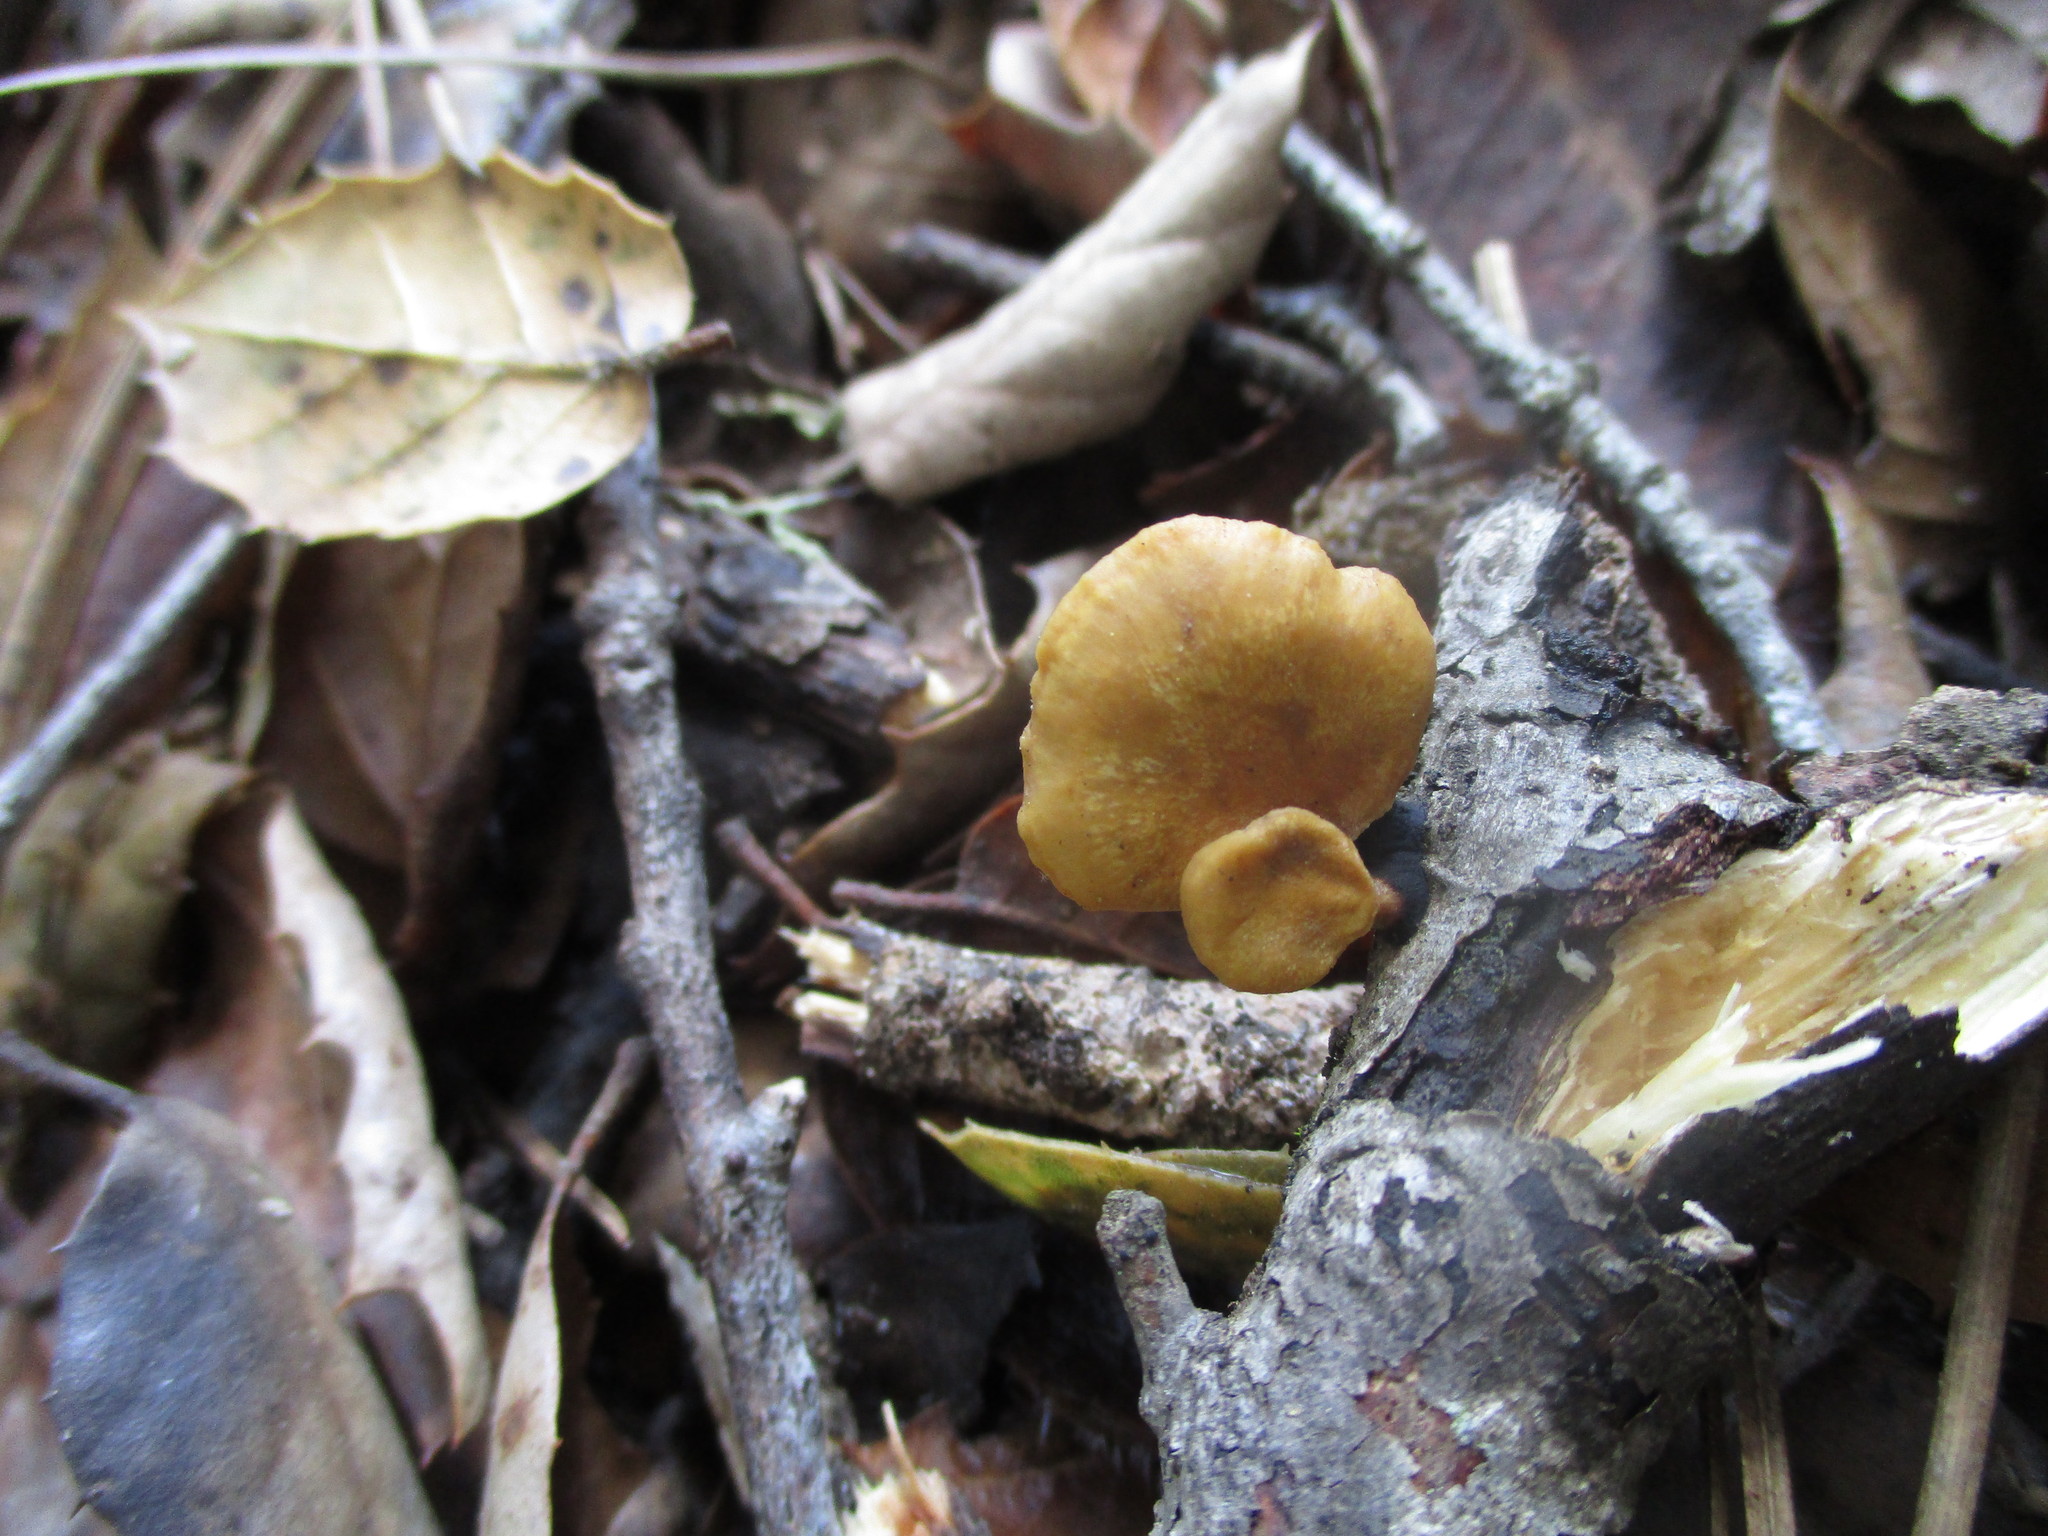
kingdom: Fungi
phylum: Basidiomycota
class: Agaricomycetes
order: Polyporales
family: Polyporaceae
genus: Cerioporus
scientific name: Cerioporus leptocephalus
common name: Blackfoot polypore
